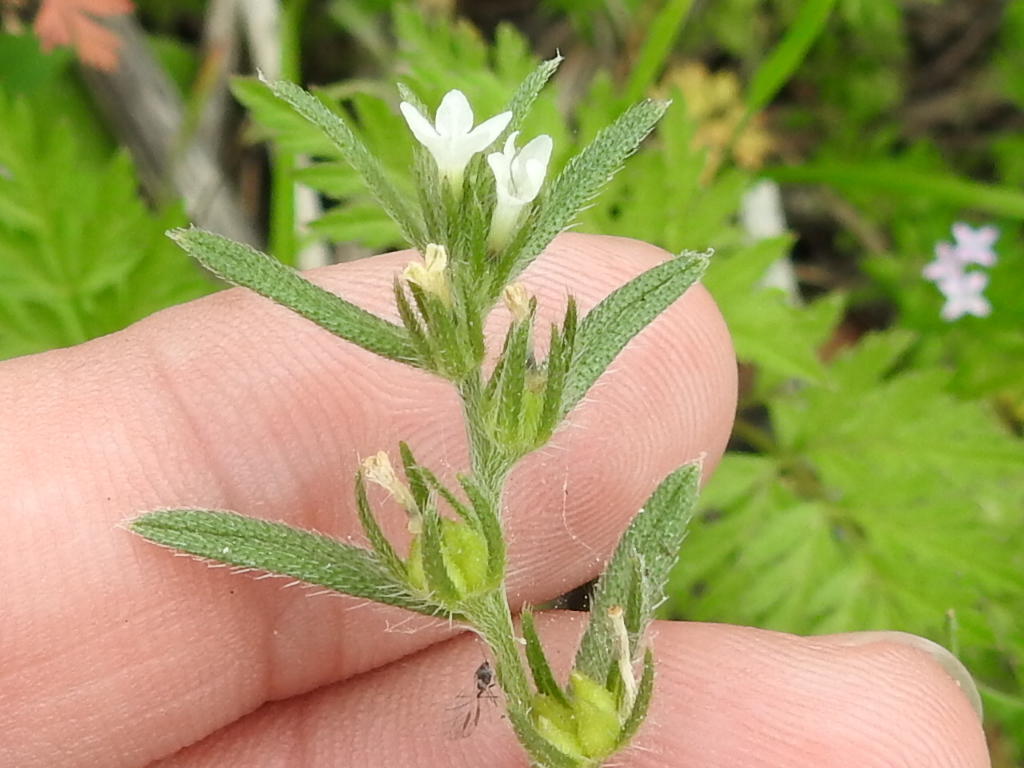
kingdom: Plantae
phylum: Tracheophyta
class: Magnoliopsida
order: Boraginales
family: Boraginaceae
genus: Buglossoides
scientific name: Buglossoides arvensis
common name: Corn gromwell
